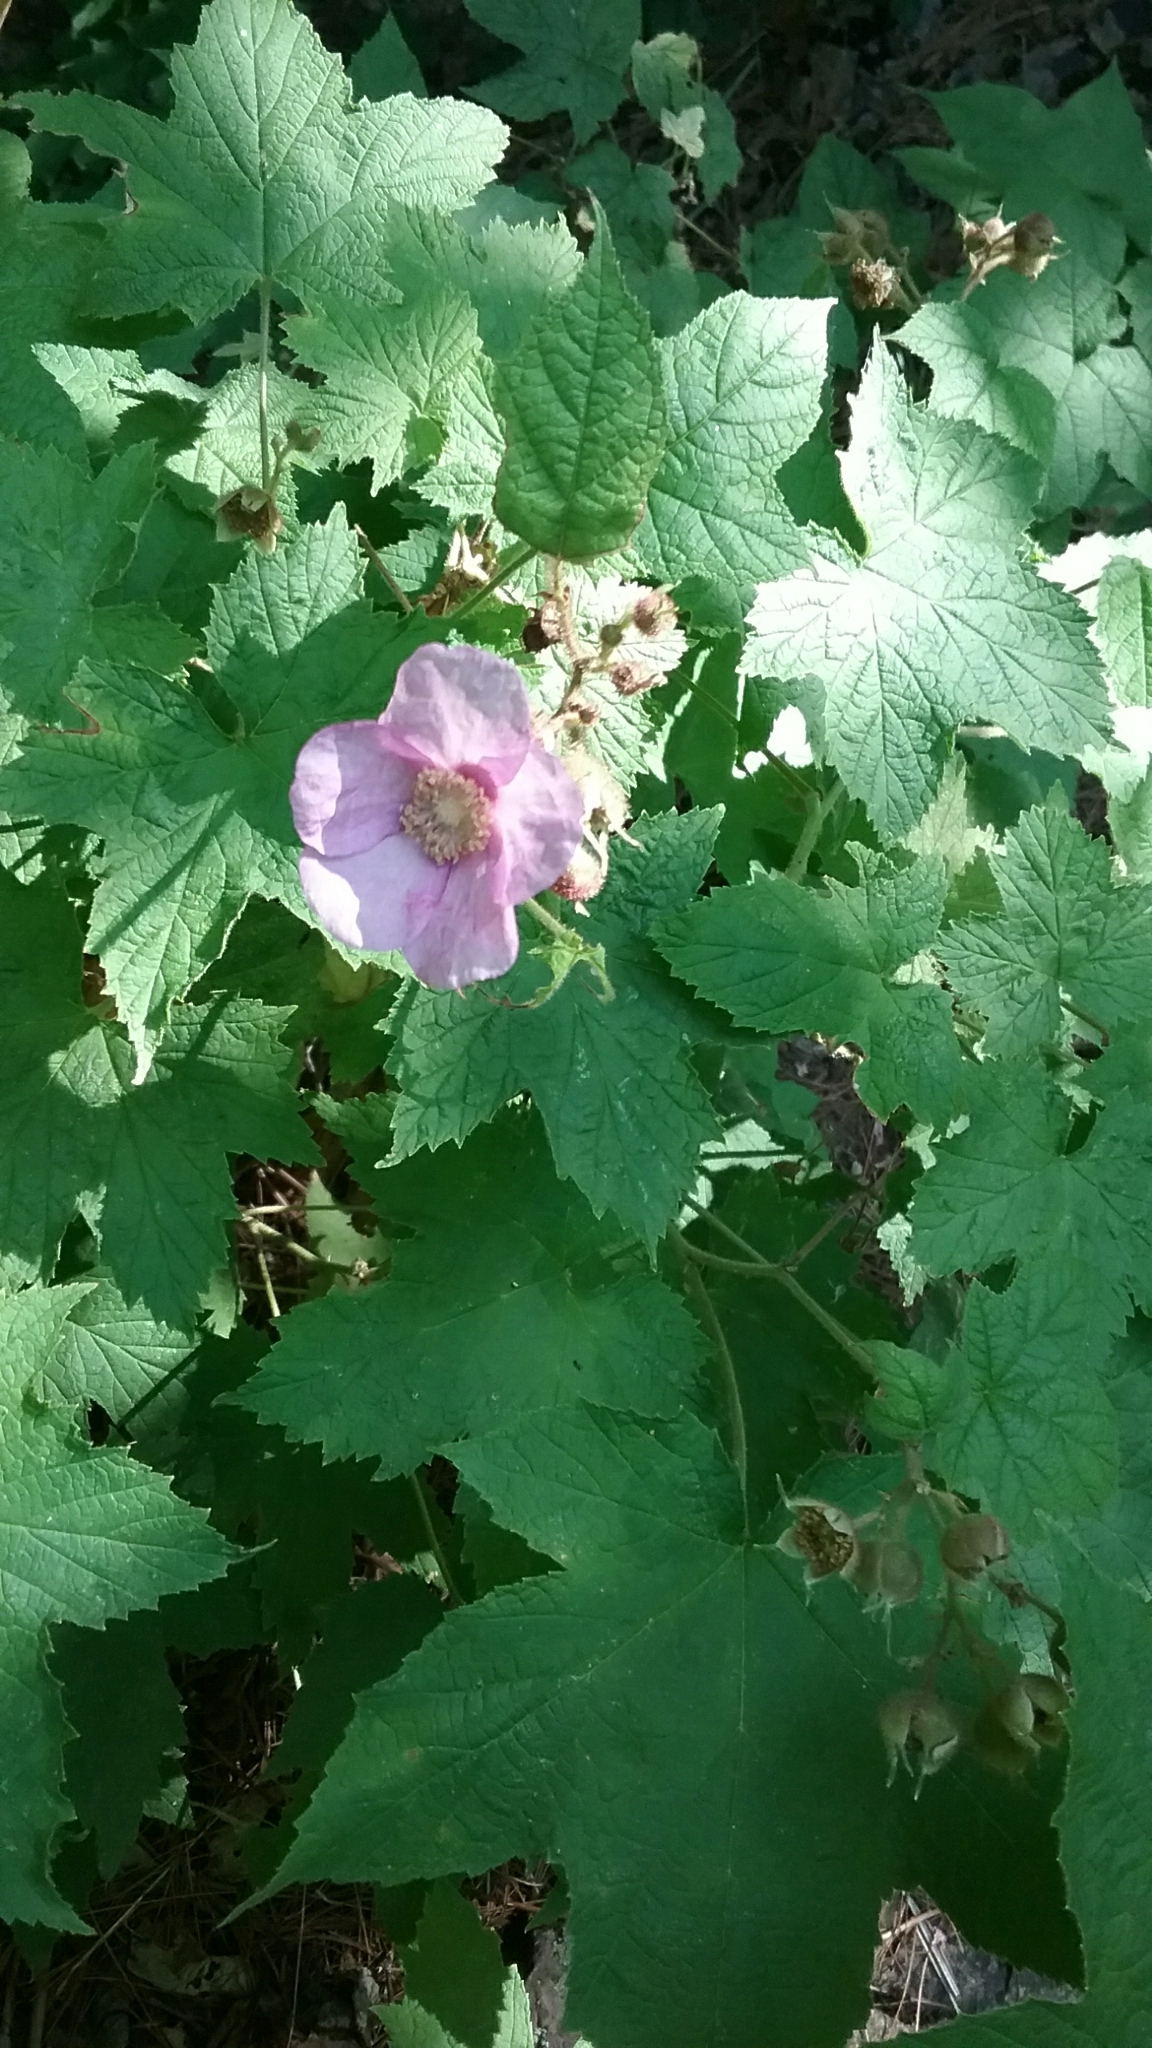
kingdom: Plantae
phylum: Tracheophyta
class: Magnoliopsida
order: Rosales
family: Rosaceae
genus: Rubus
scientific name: Rubus odoratus
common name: Purple-flowered raspberry
